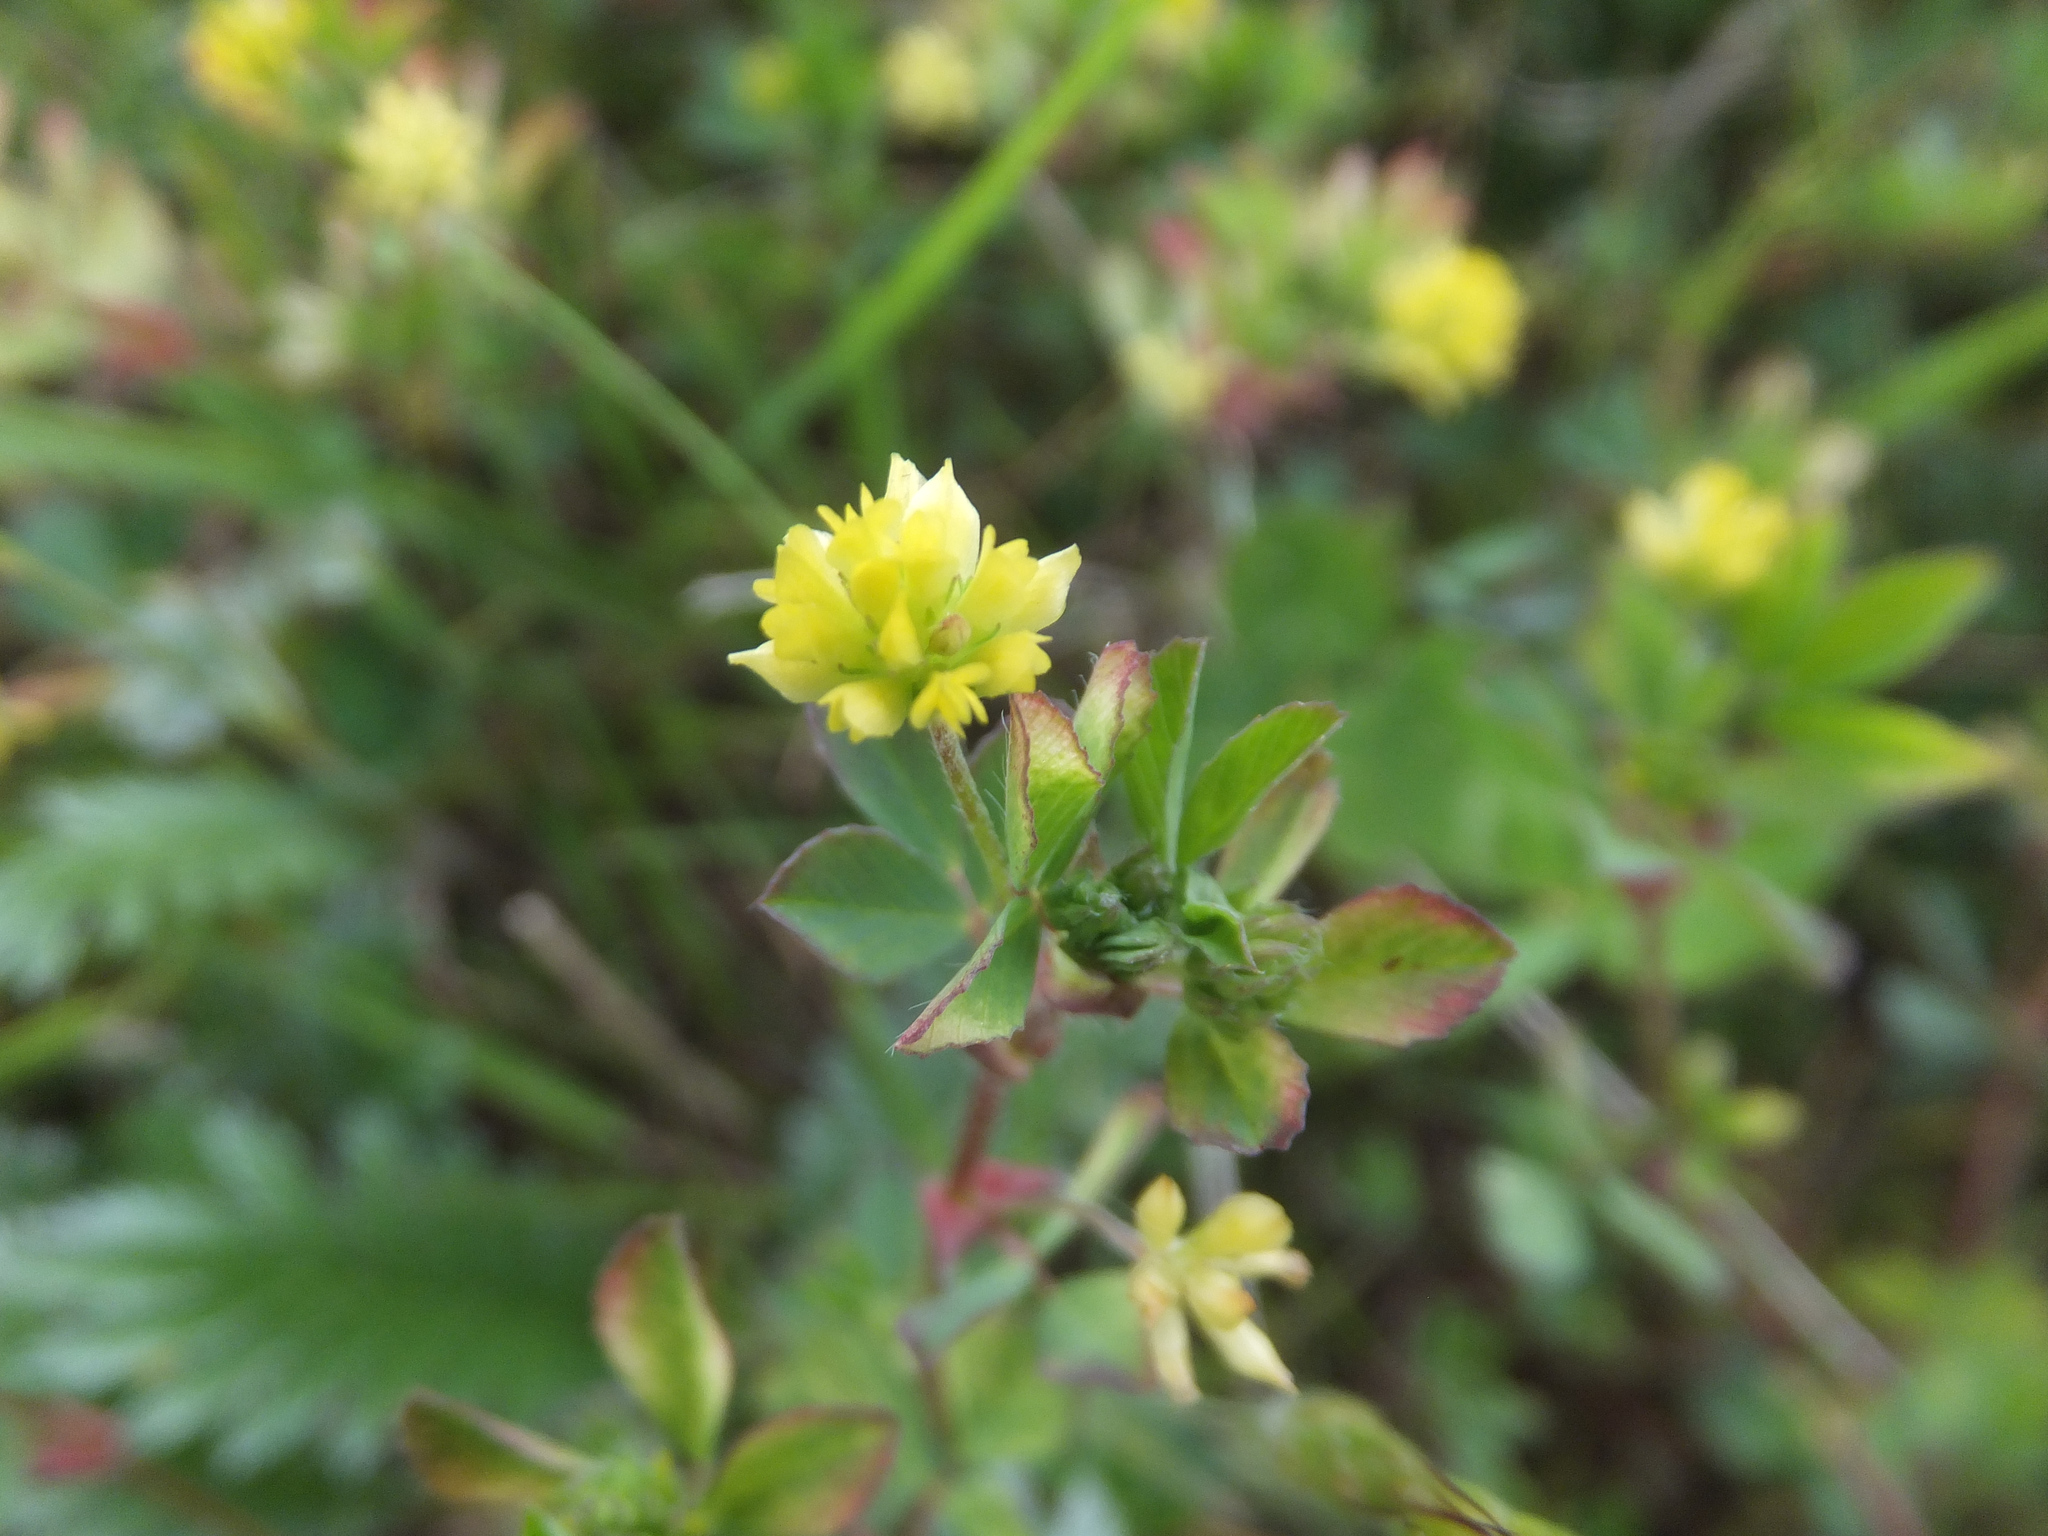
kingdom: Plantae
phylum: Tracheophyta
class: Magnoliopsida
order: Fabales
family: Fabaceae
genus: Trifolium
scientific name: Trifolium dubium
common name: Suckling clover
